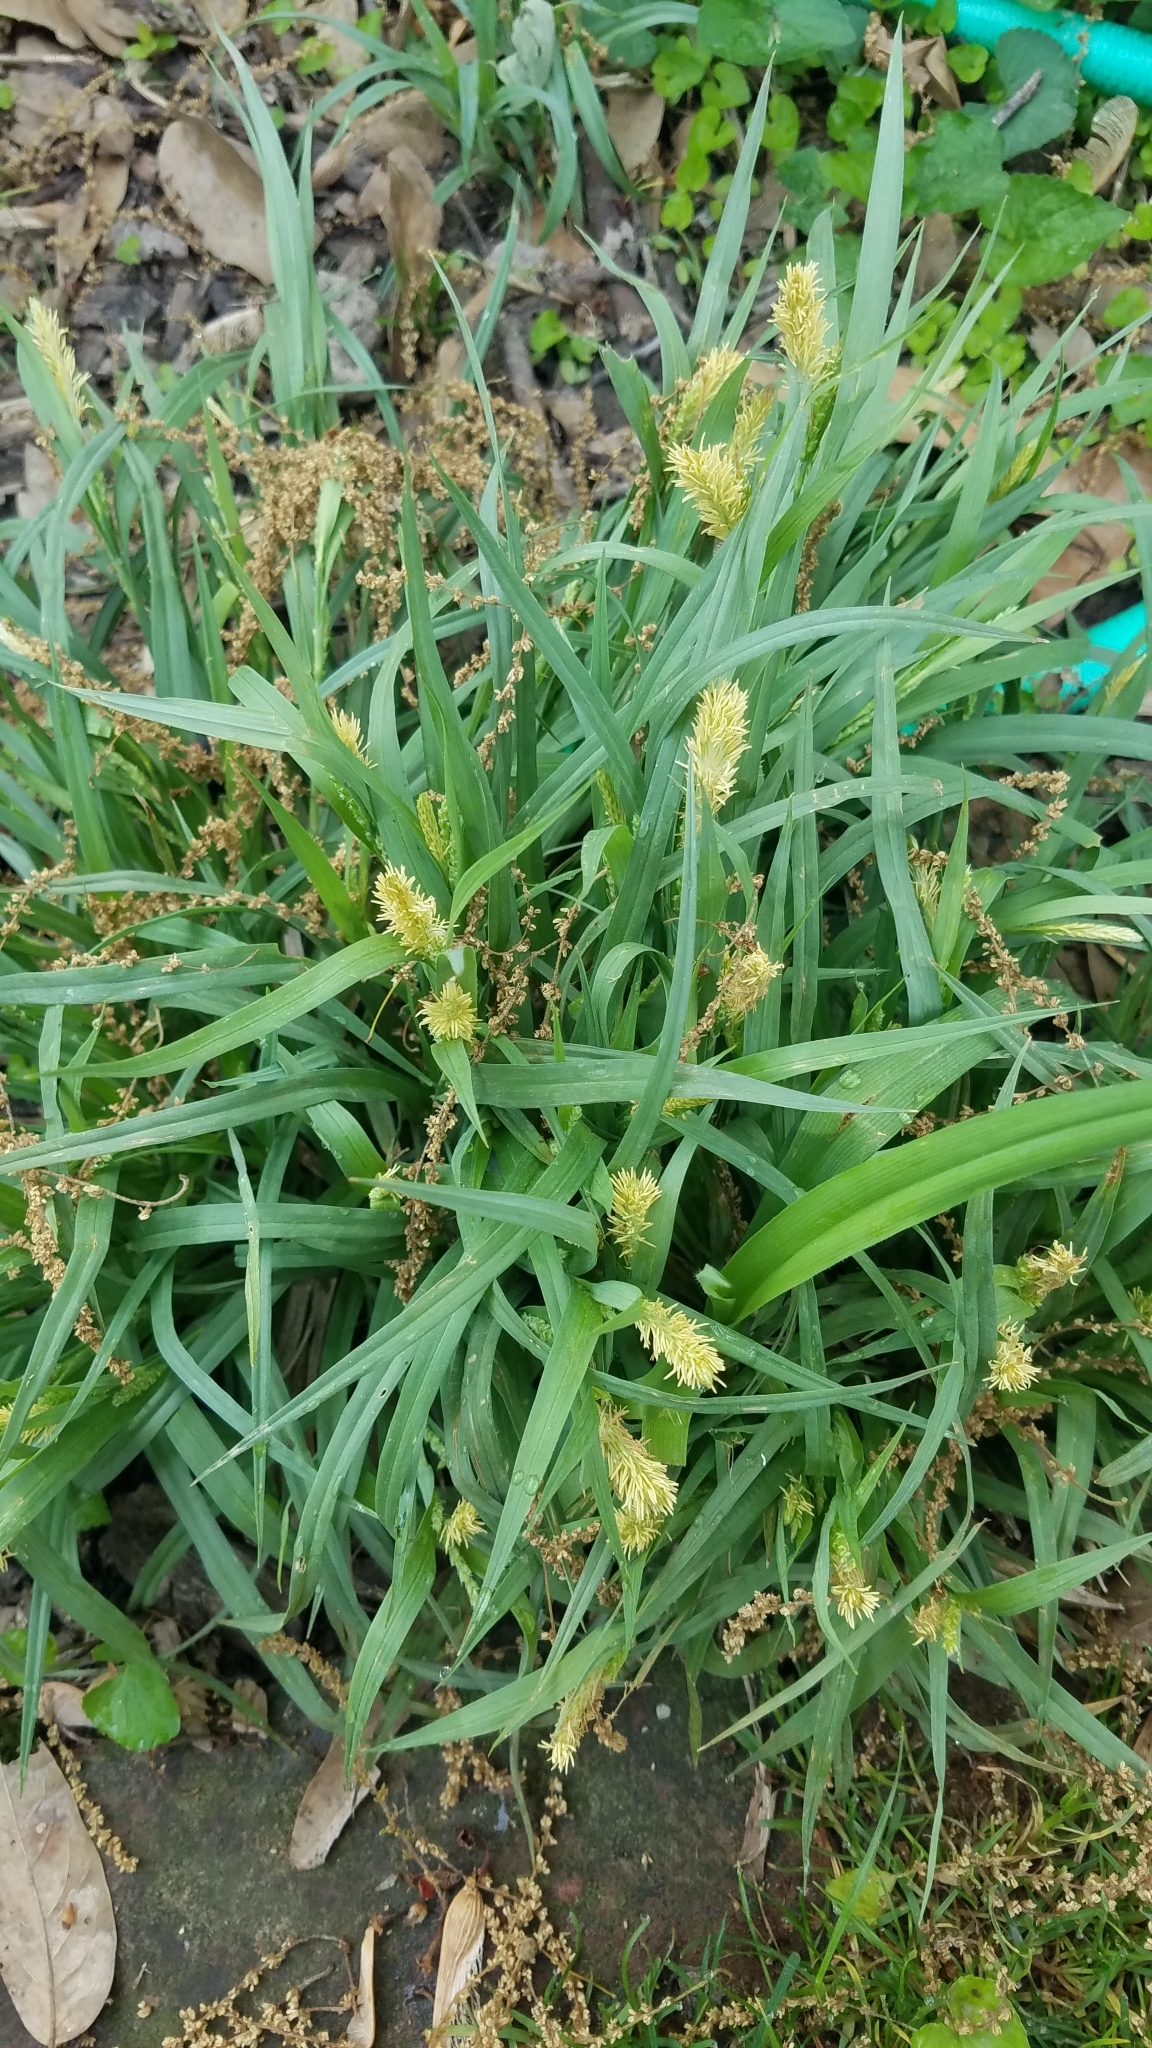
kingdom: Plantae
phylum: Tracheophyta
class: Liliopsida
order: Poales
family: Cyperaceae
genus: Carex
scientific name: Carex glaucodea
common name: Blue sedge
